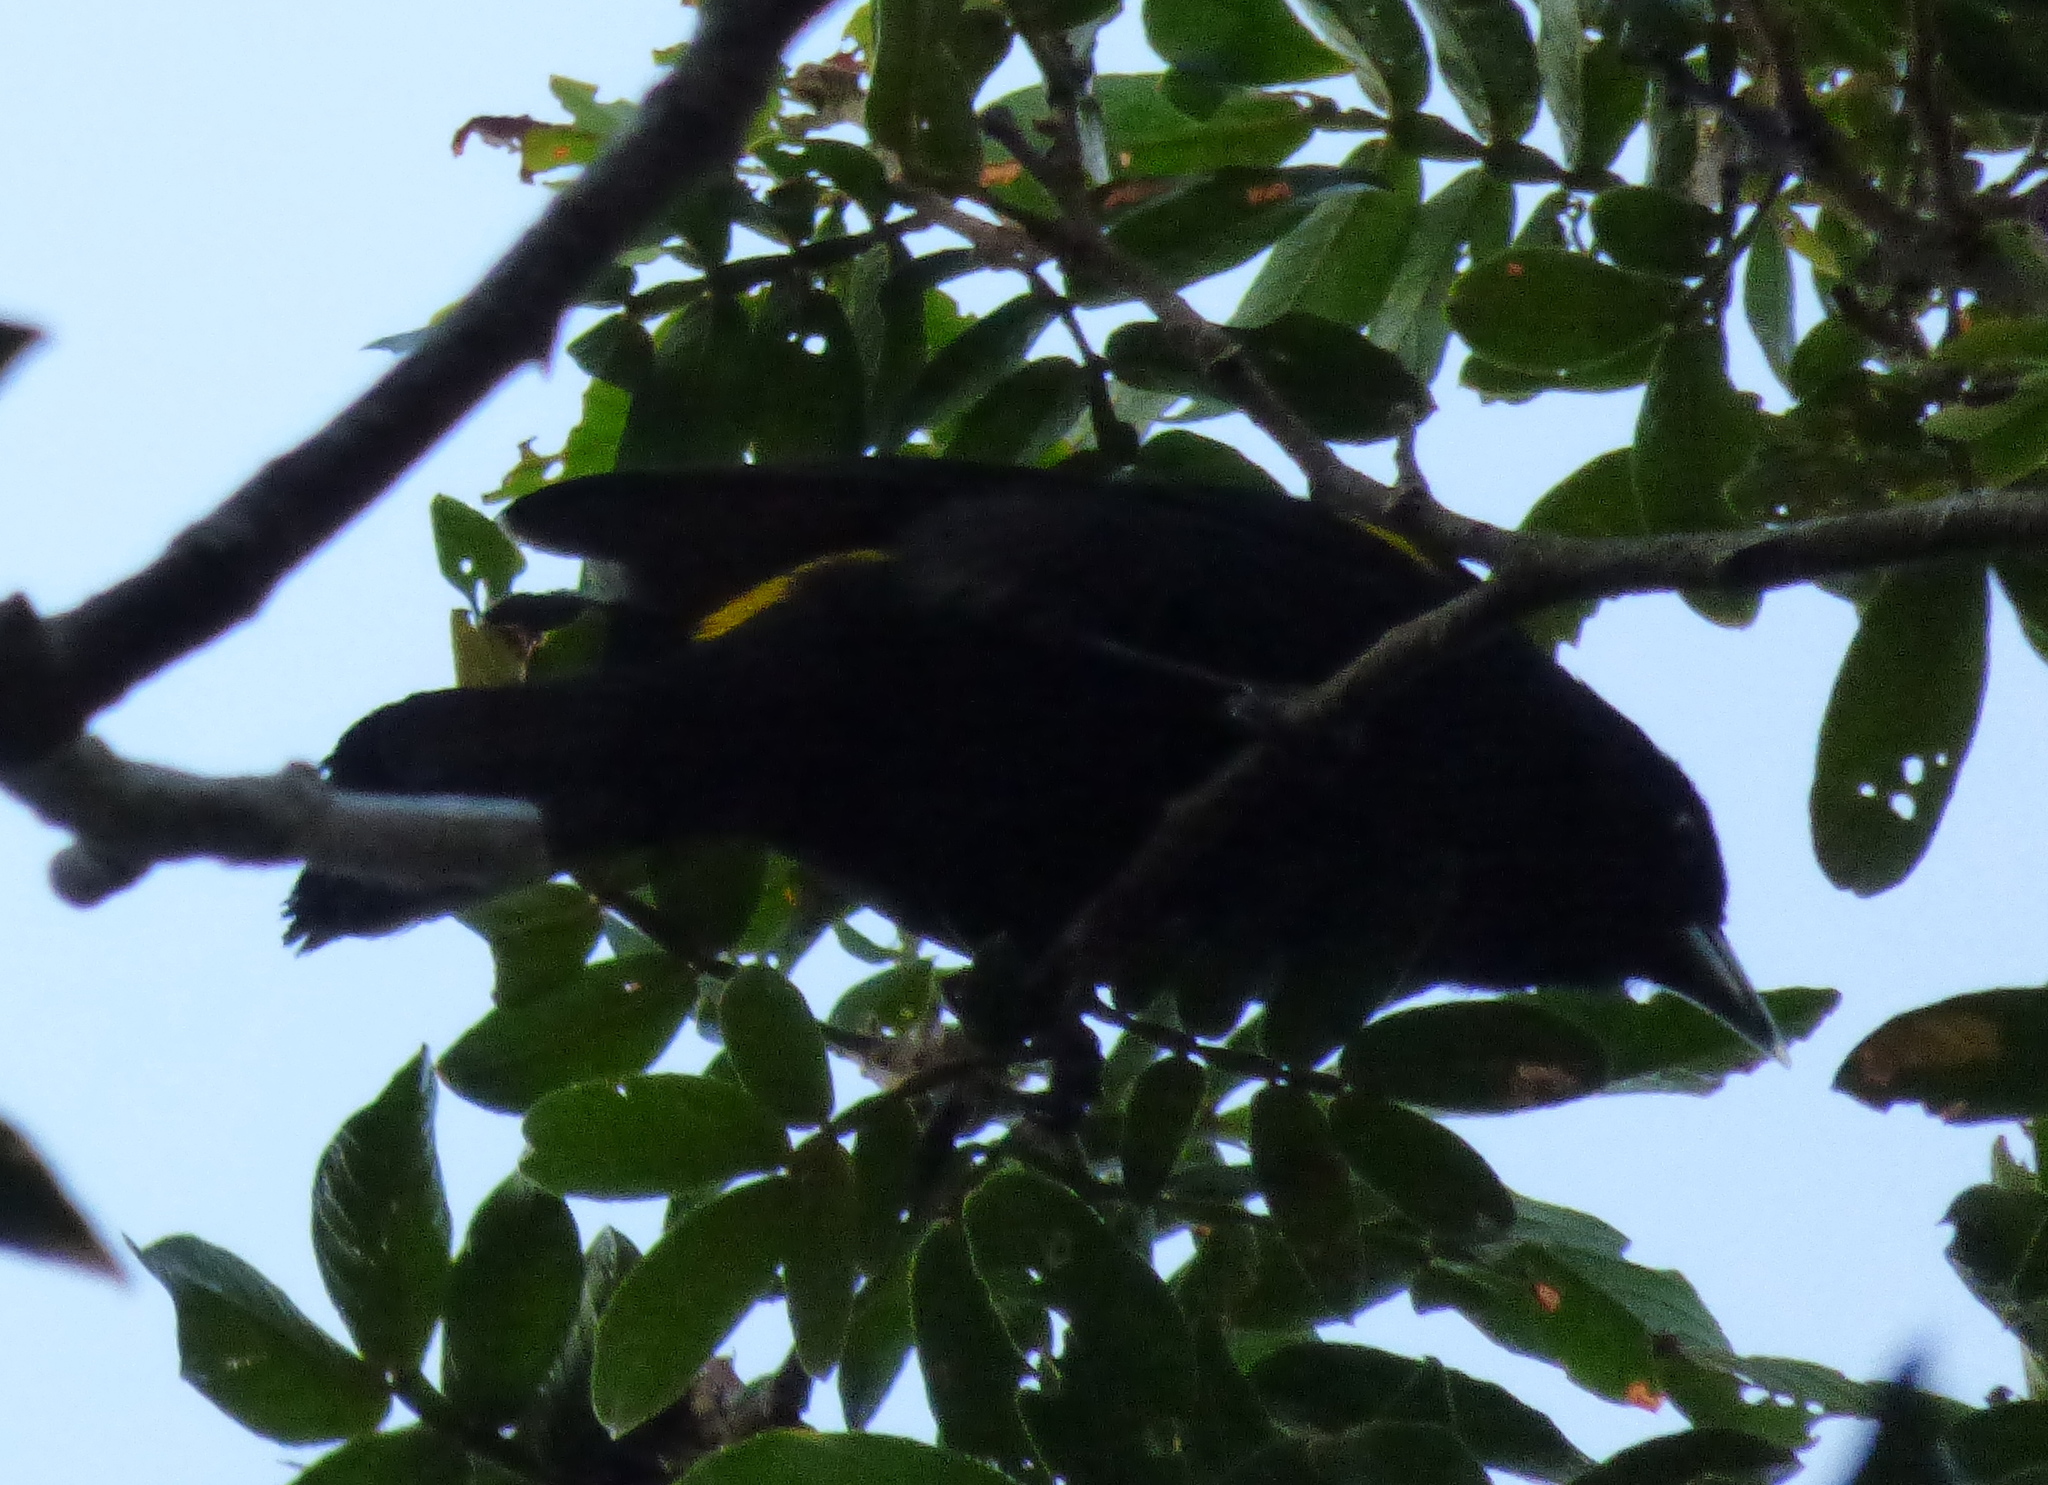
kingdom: Animalia
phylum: Chordata
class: Aves
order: Passeriformes
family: Icteridae
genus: Cacicus
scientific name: Cacicus chrysopterus
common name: Golden-winged cacique
